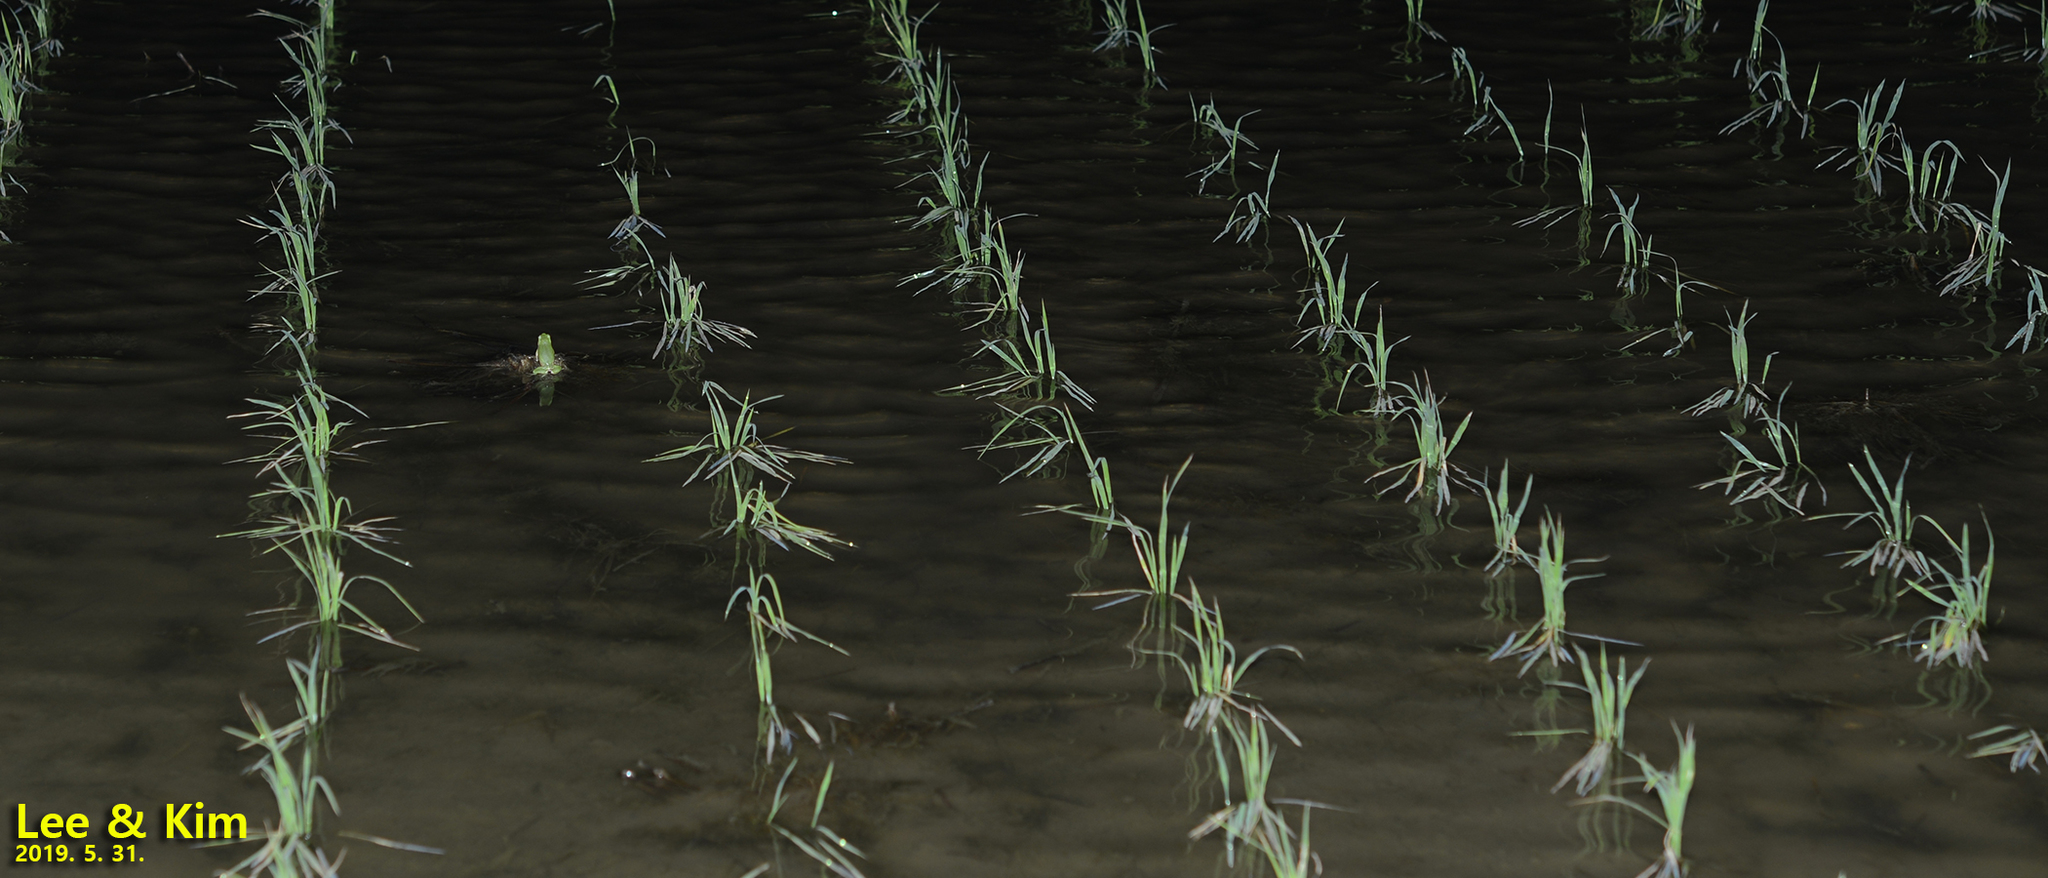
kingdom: Animalia
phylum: Chordata
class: Amphibia
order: Anura
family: Hylidae
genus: Dryophytes
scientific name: Dryophytes immaculatus
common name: North china treefrog
